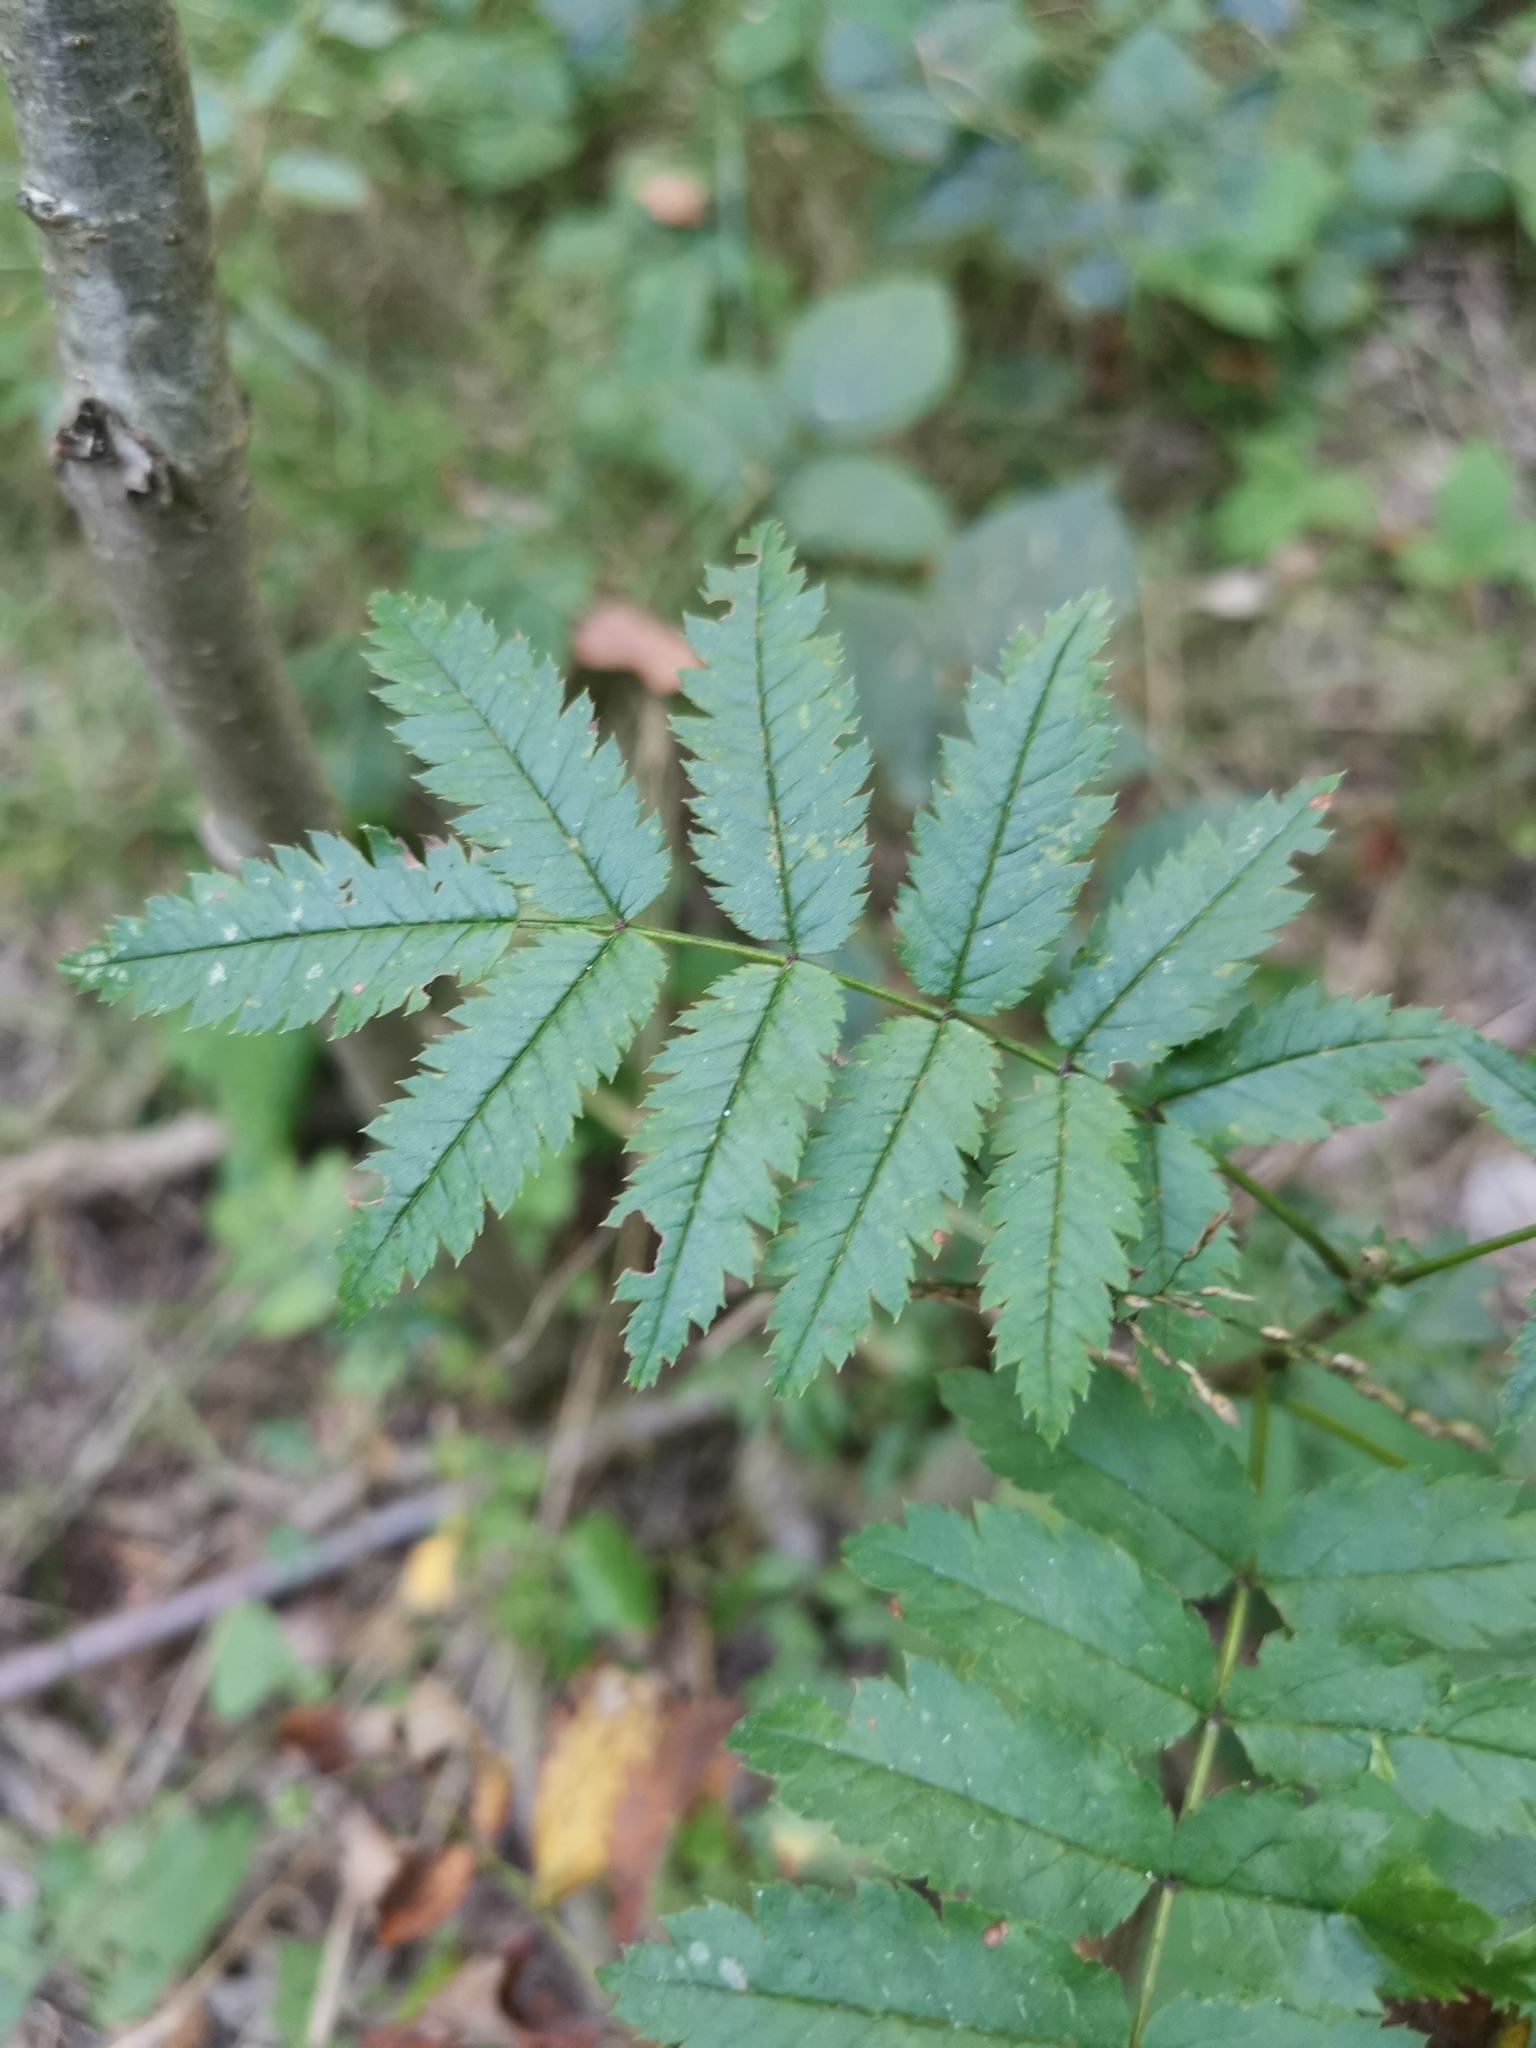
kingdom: Plantae
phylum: Tracheophyta
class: Magnoliopsida
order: Rosales
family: Rosaceae
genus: Sorbus
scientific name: Sorbus aucuparia
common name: Rowan
